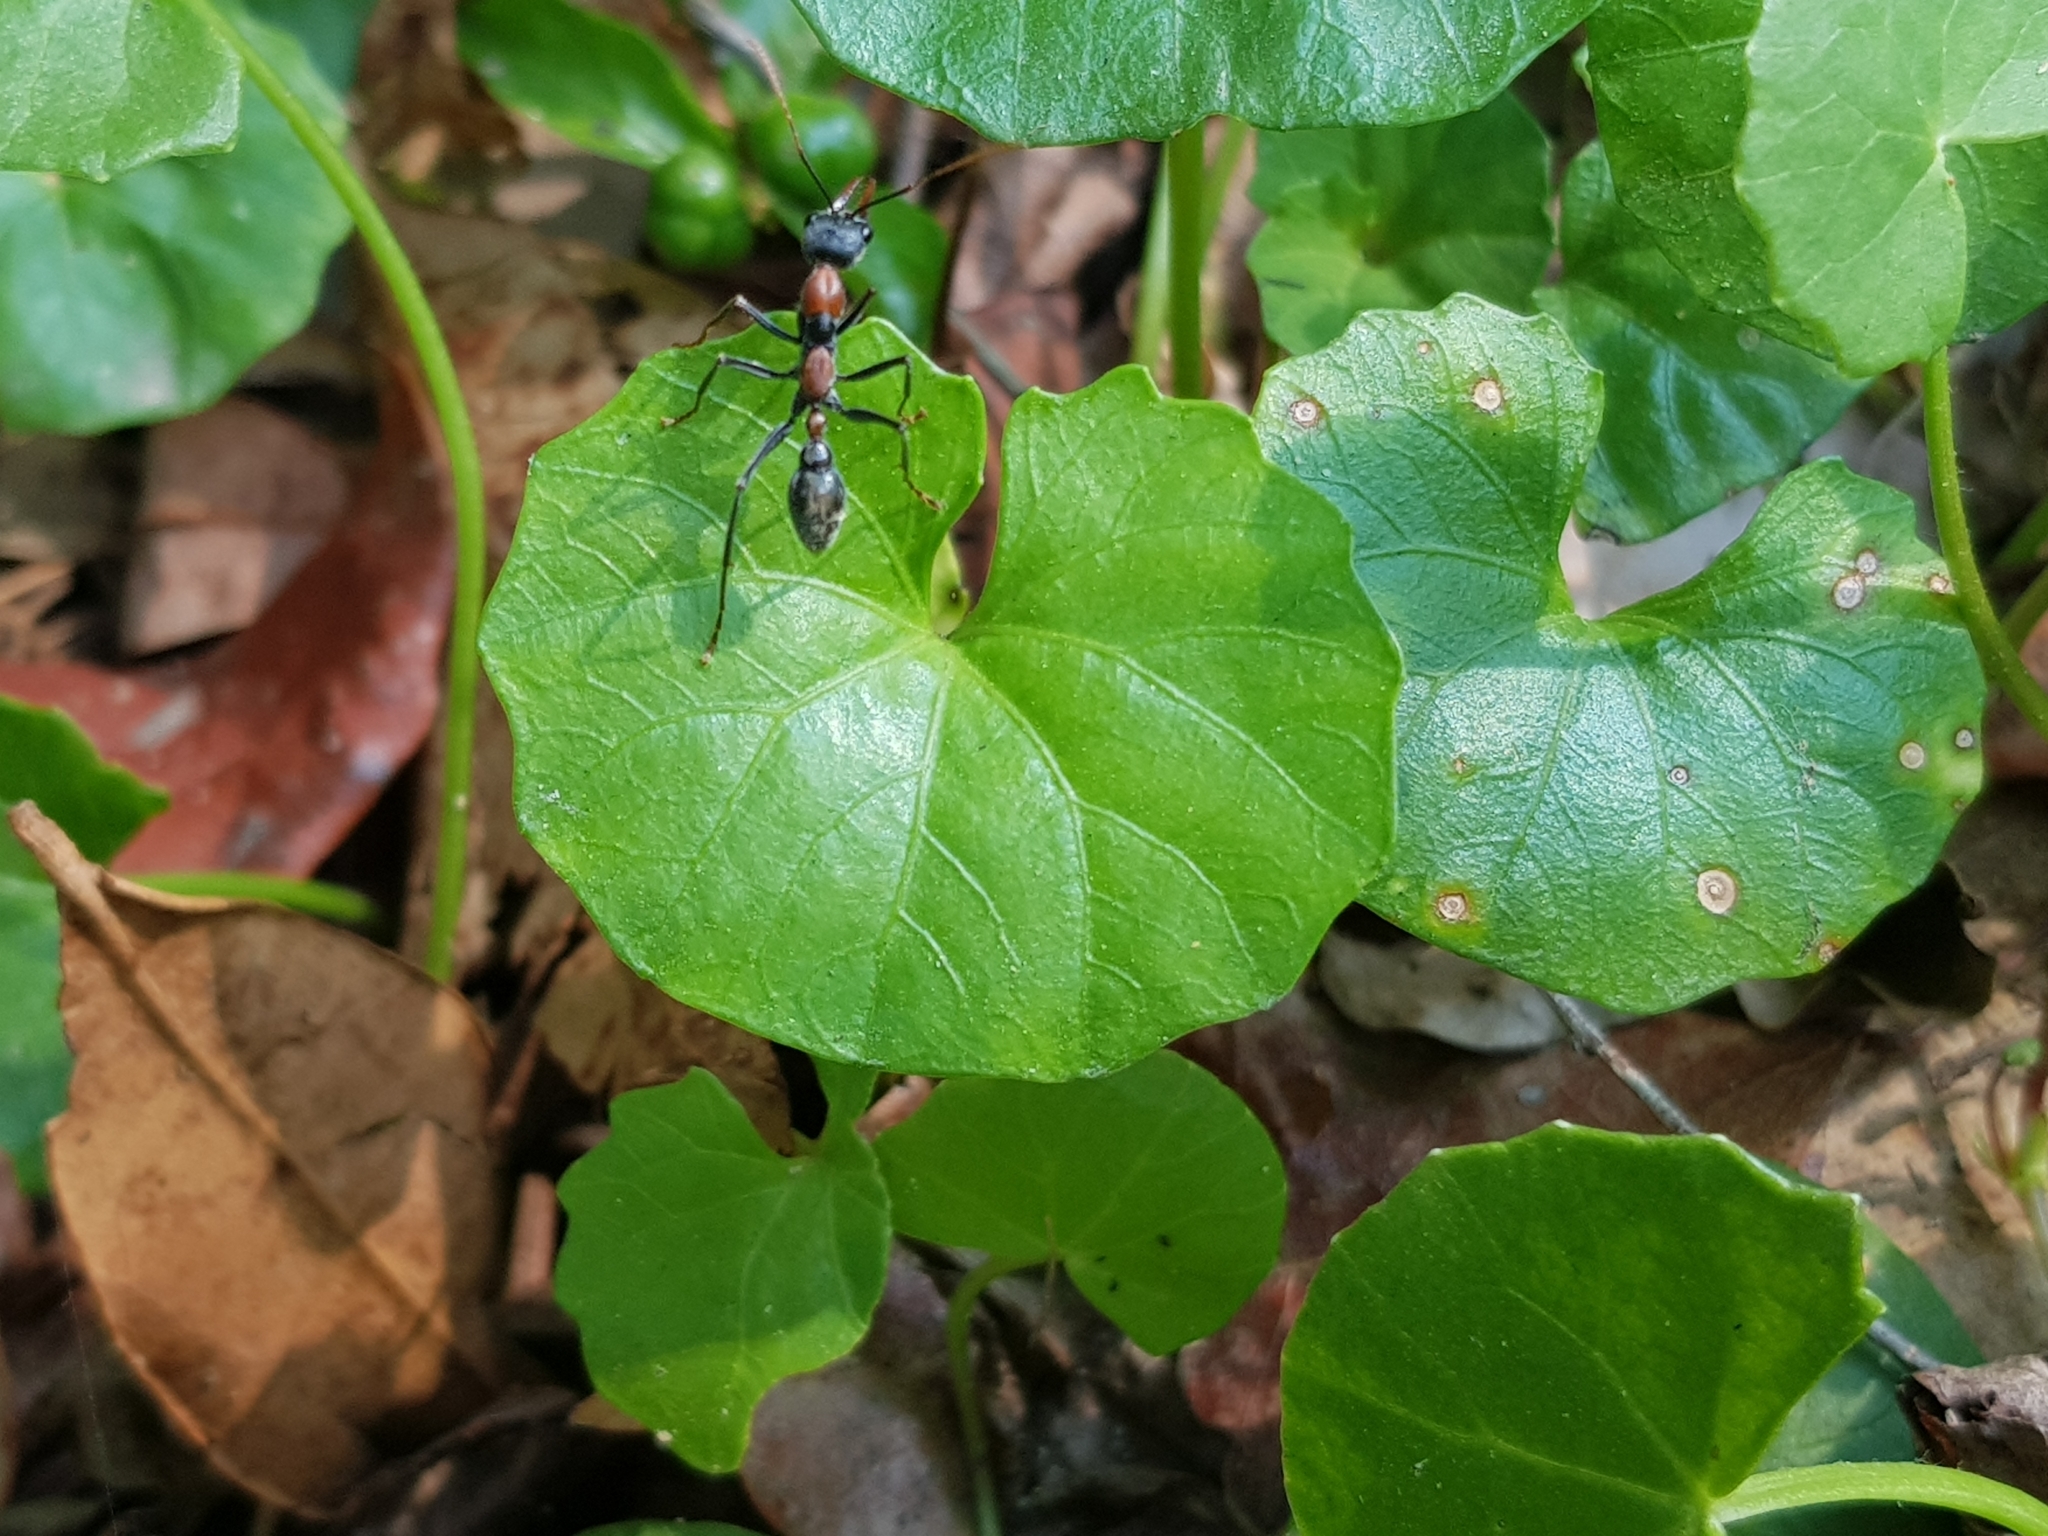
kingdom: Plantae
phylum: Tracheophyta
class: Magnoliopsida
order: Malpighiales
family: Violaceae
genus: Viola
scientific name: Viola banksii
